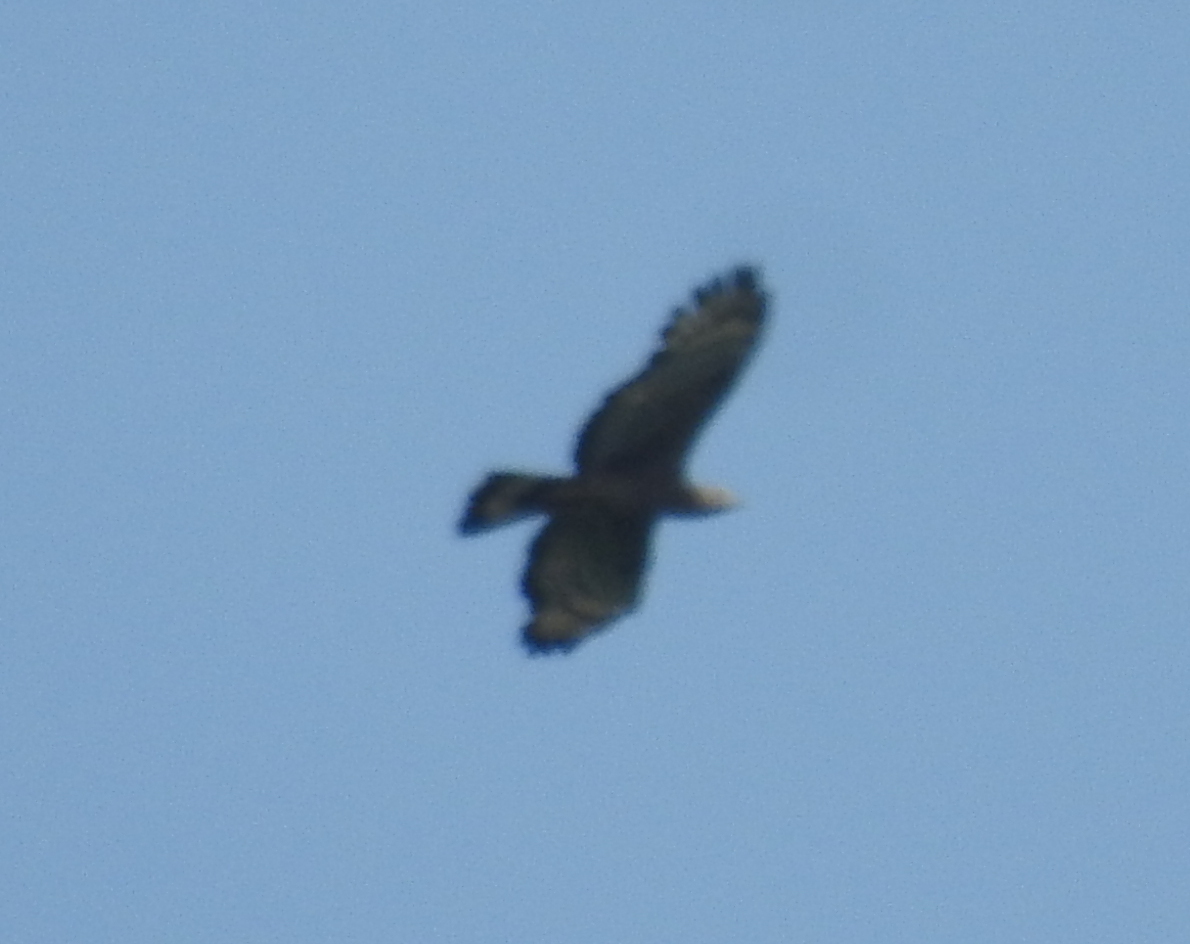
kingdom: Animalia
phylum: Chordata
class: Aves
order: Accipitriformes
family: Accipitridae
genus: Pernis
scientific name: Pernis ptilorhynchus
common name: Crested honey buzzard
